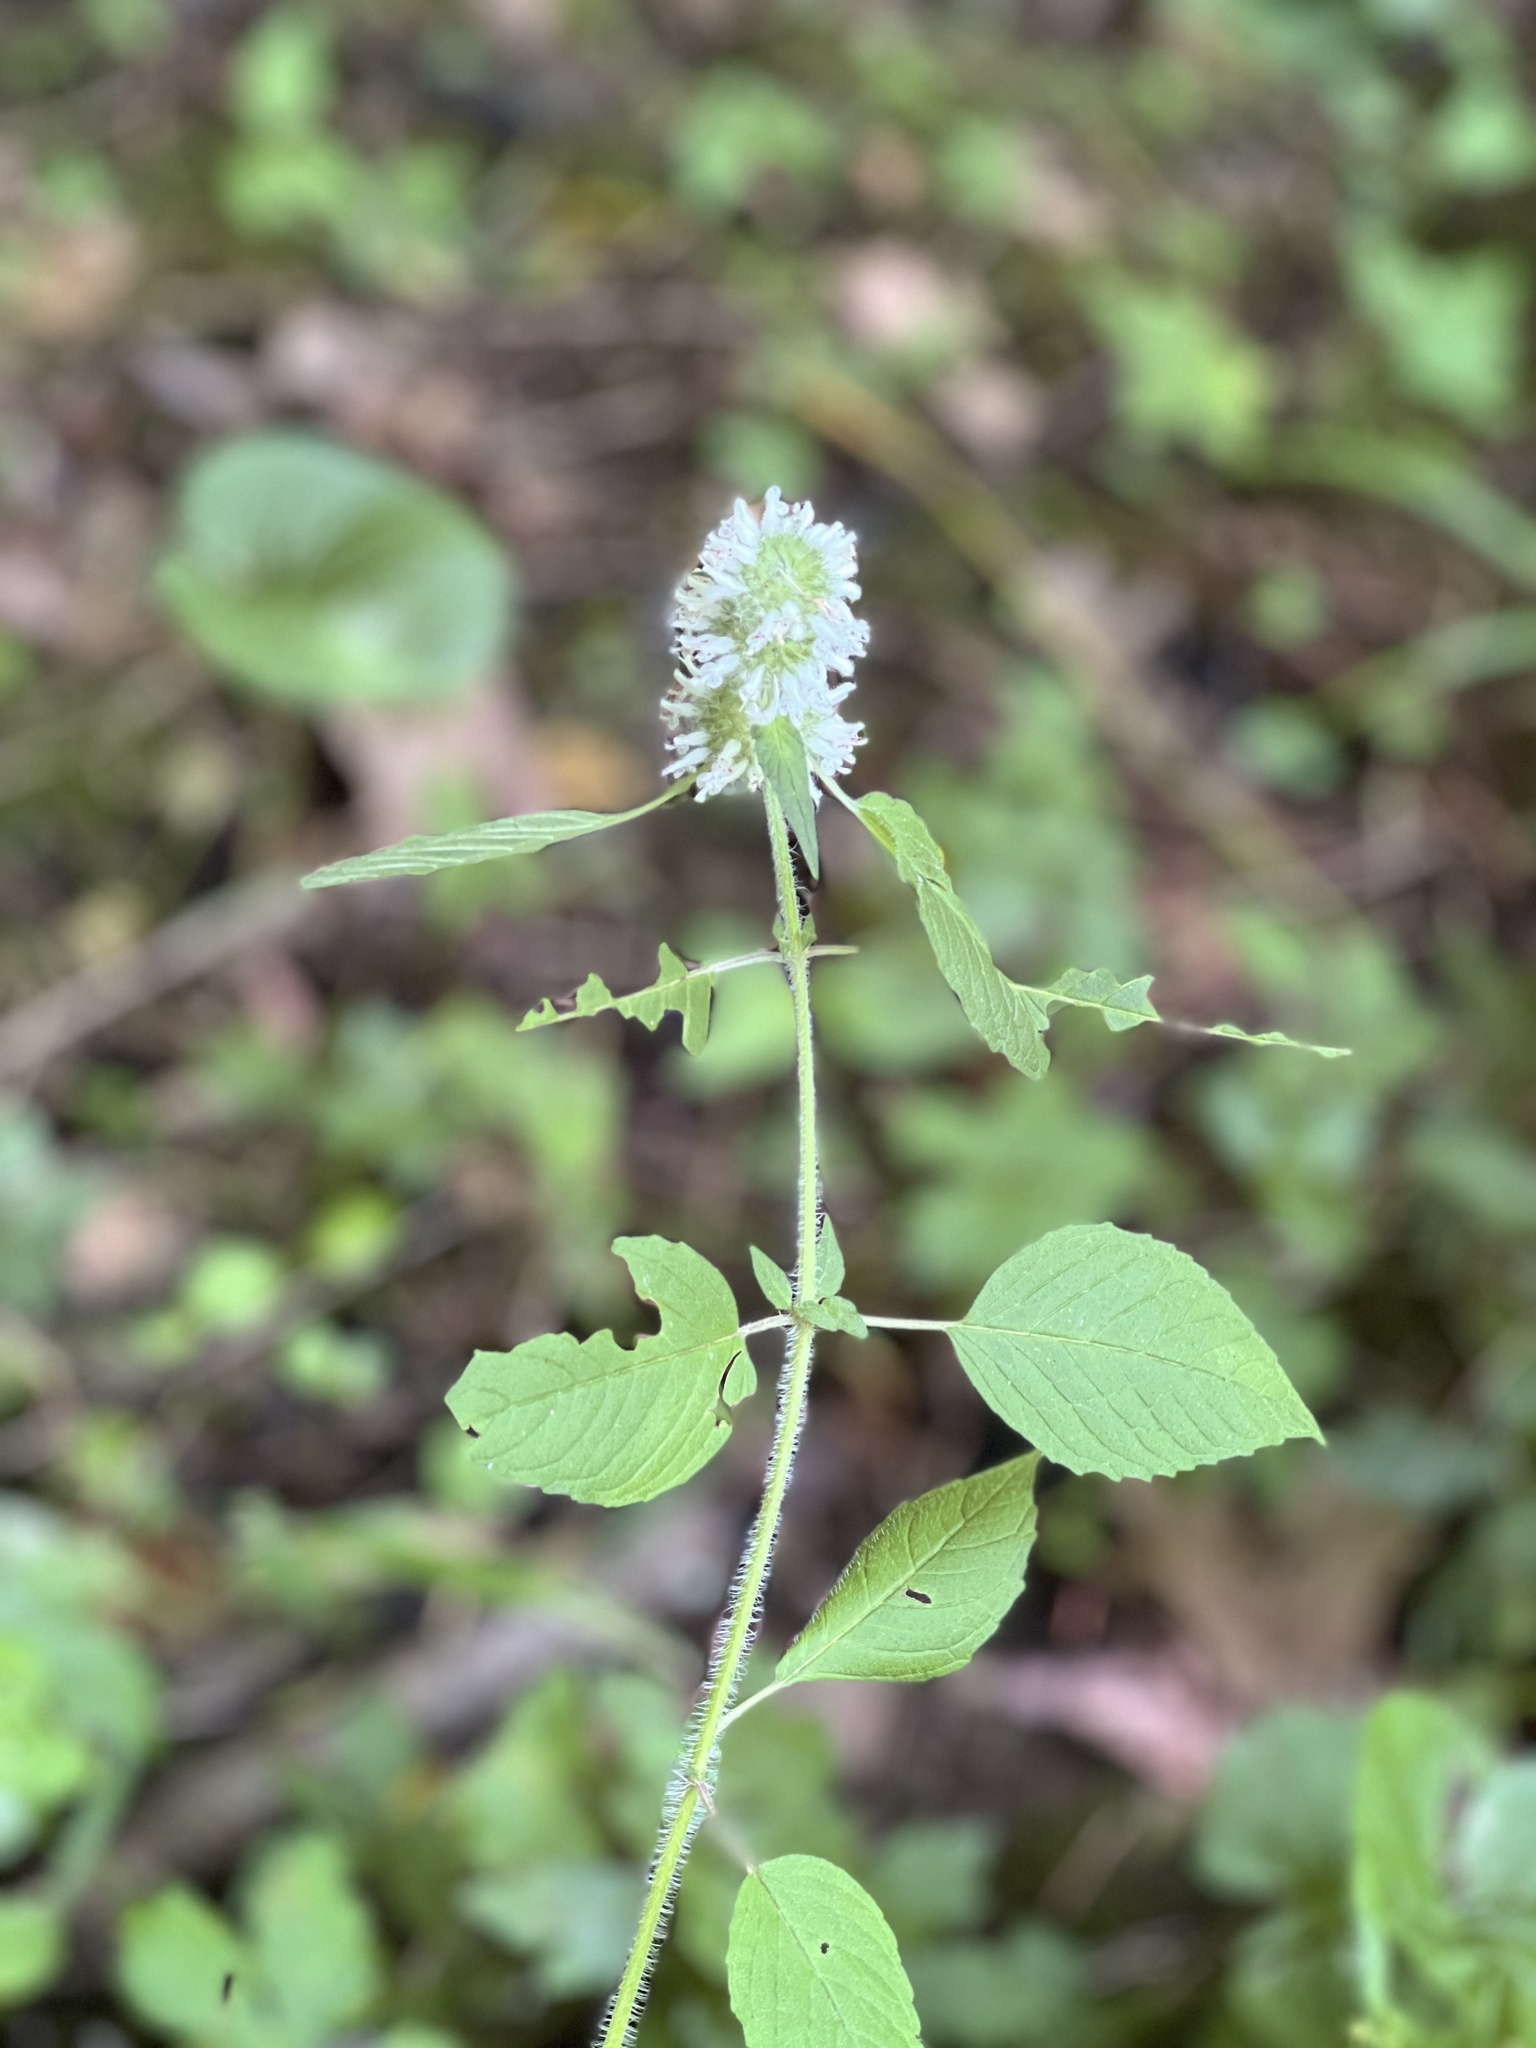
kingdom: Plantae
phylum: Tracheophyta
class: Magnoliopsida
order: Lamiales
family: Lamiaceae
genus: Blephilia
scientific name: Blephilia hirsuta
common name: Hairy blephilia
